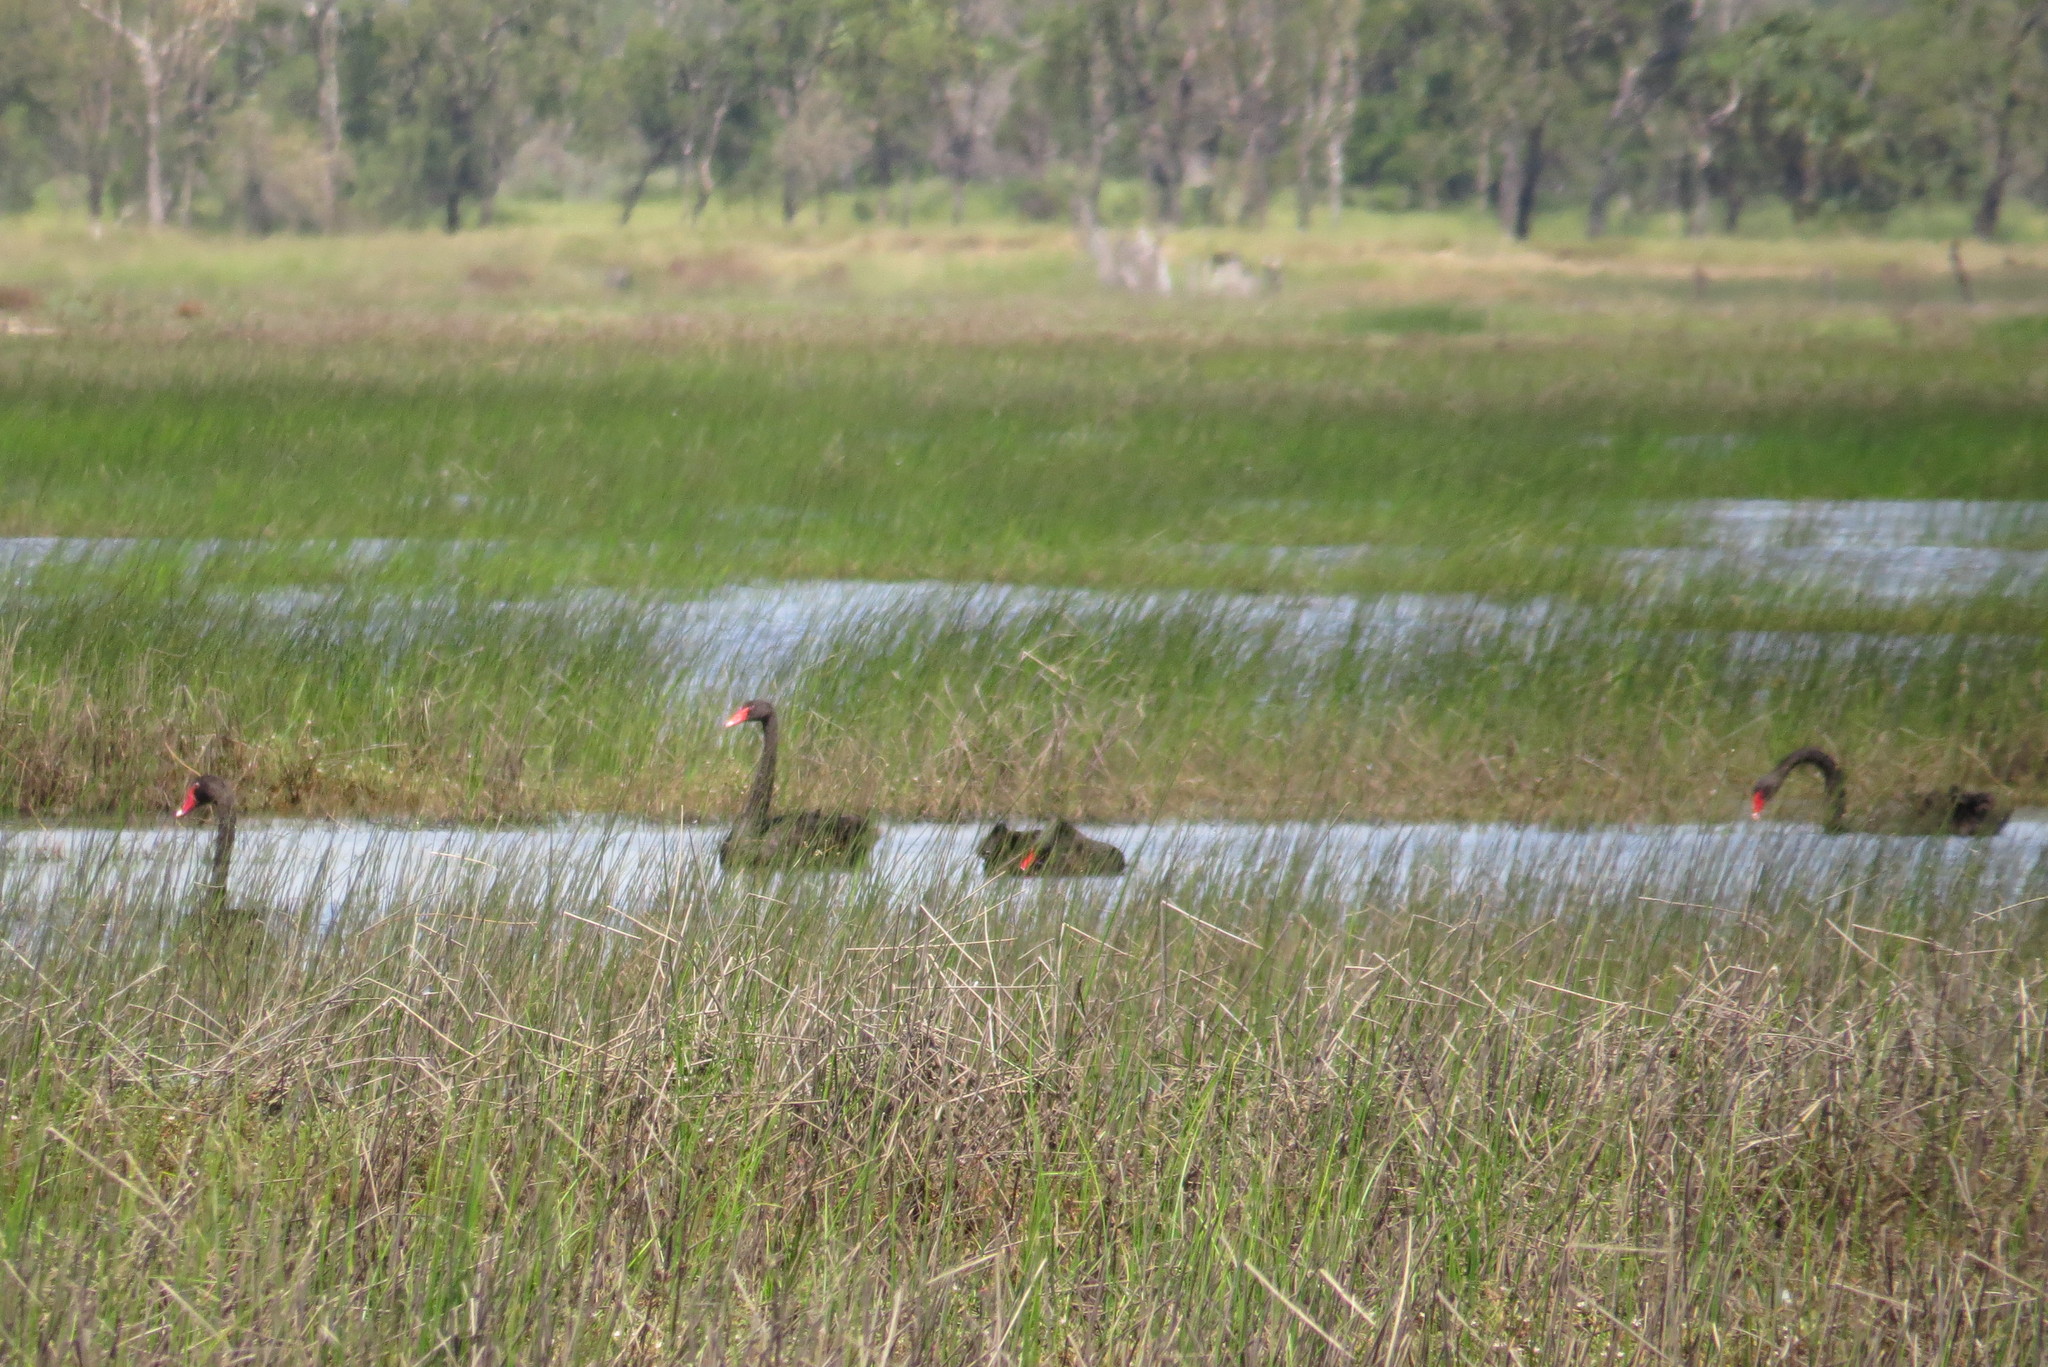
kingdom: Animalia
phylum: Chordata
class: Aves
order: Anseriformes
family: Anatidae
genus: Cygnus
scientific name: Cygnus atratus
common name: Black swan
